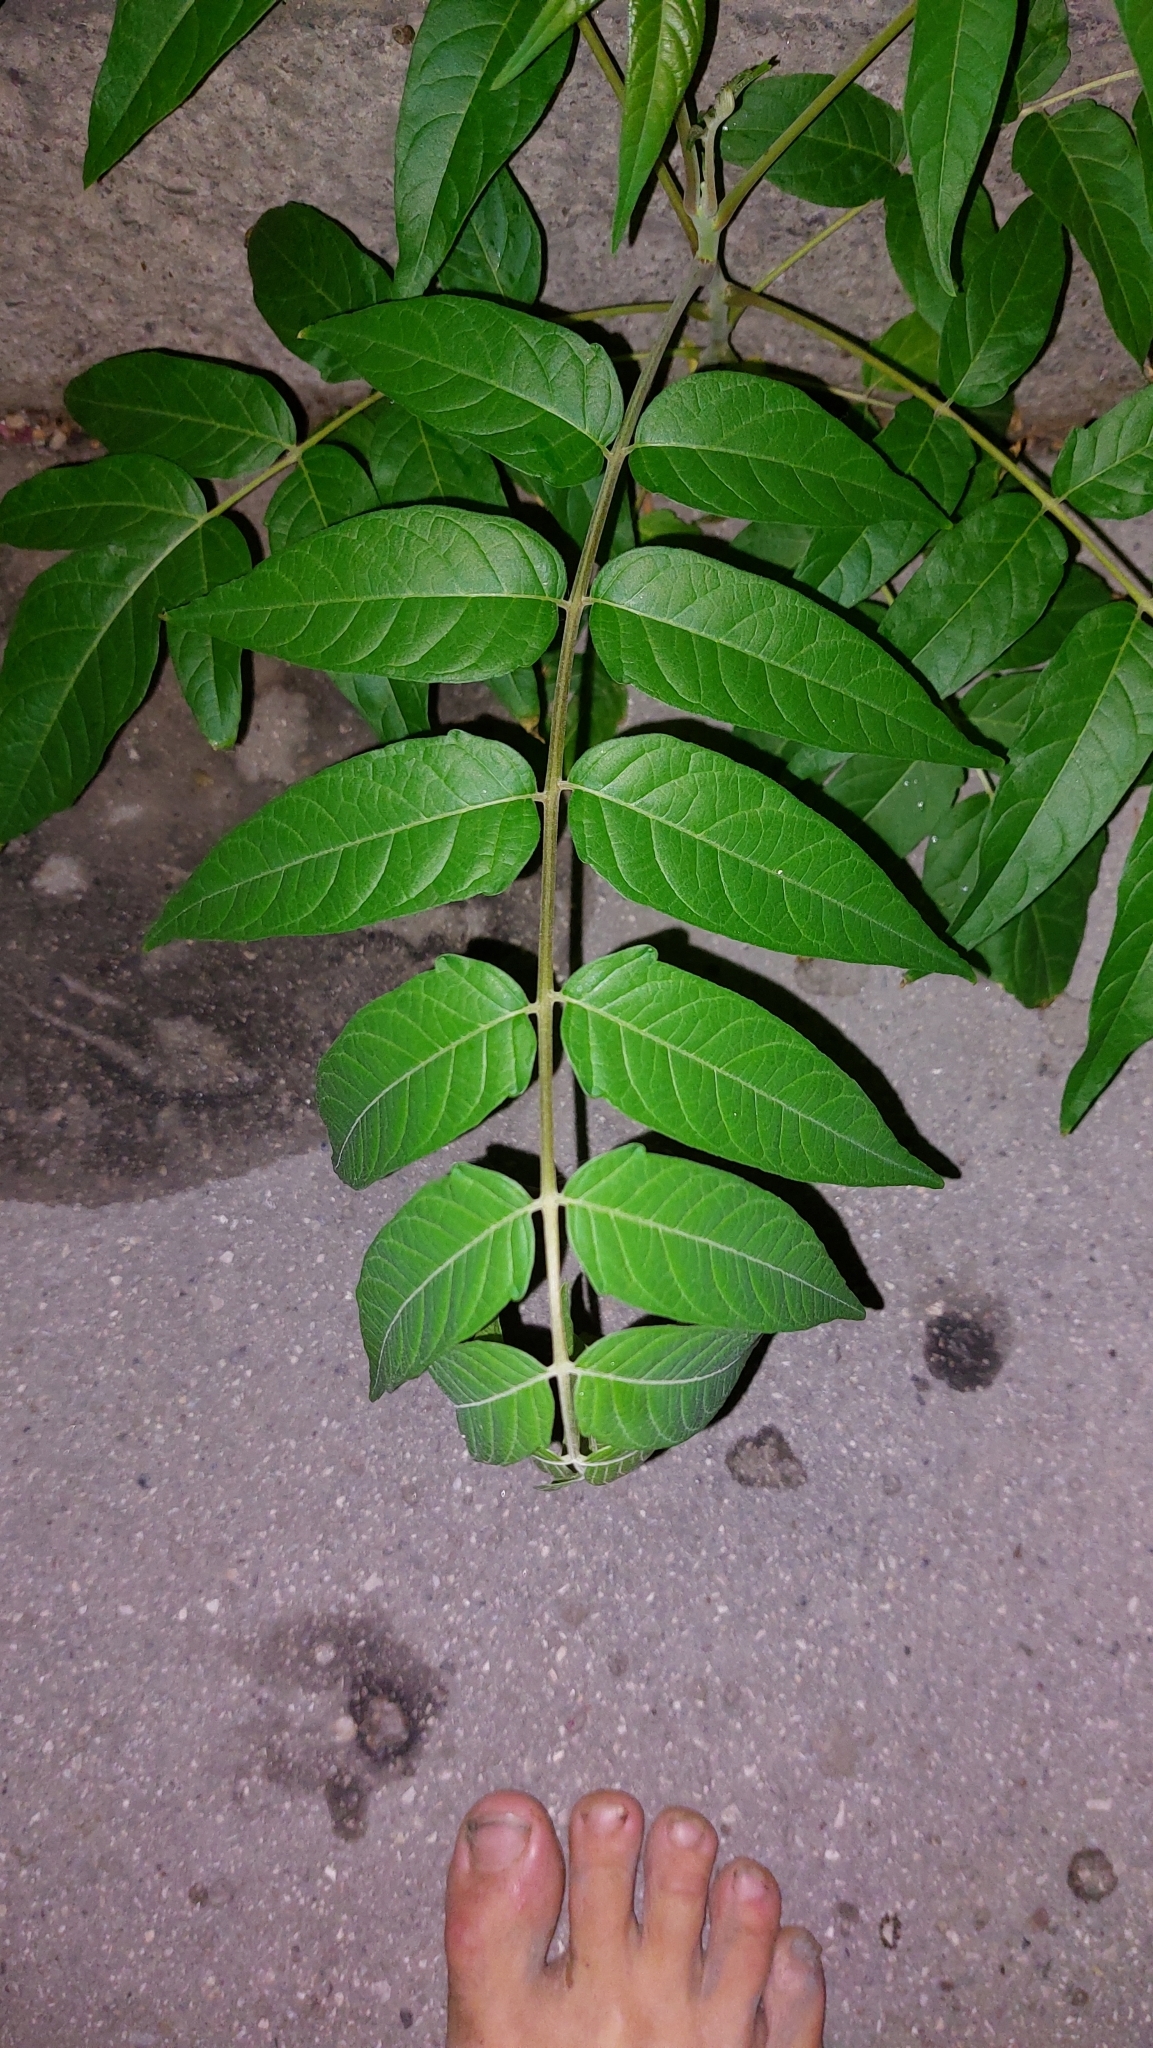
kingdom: Plantae
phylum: Tracheophyta
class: Magnoliopsida
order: Sapindales
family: Simaroubaceae
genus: Ailanthus
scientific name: Ailanthus altissima
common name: Tree-of-heaven
